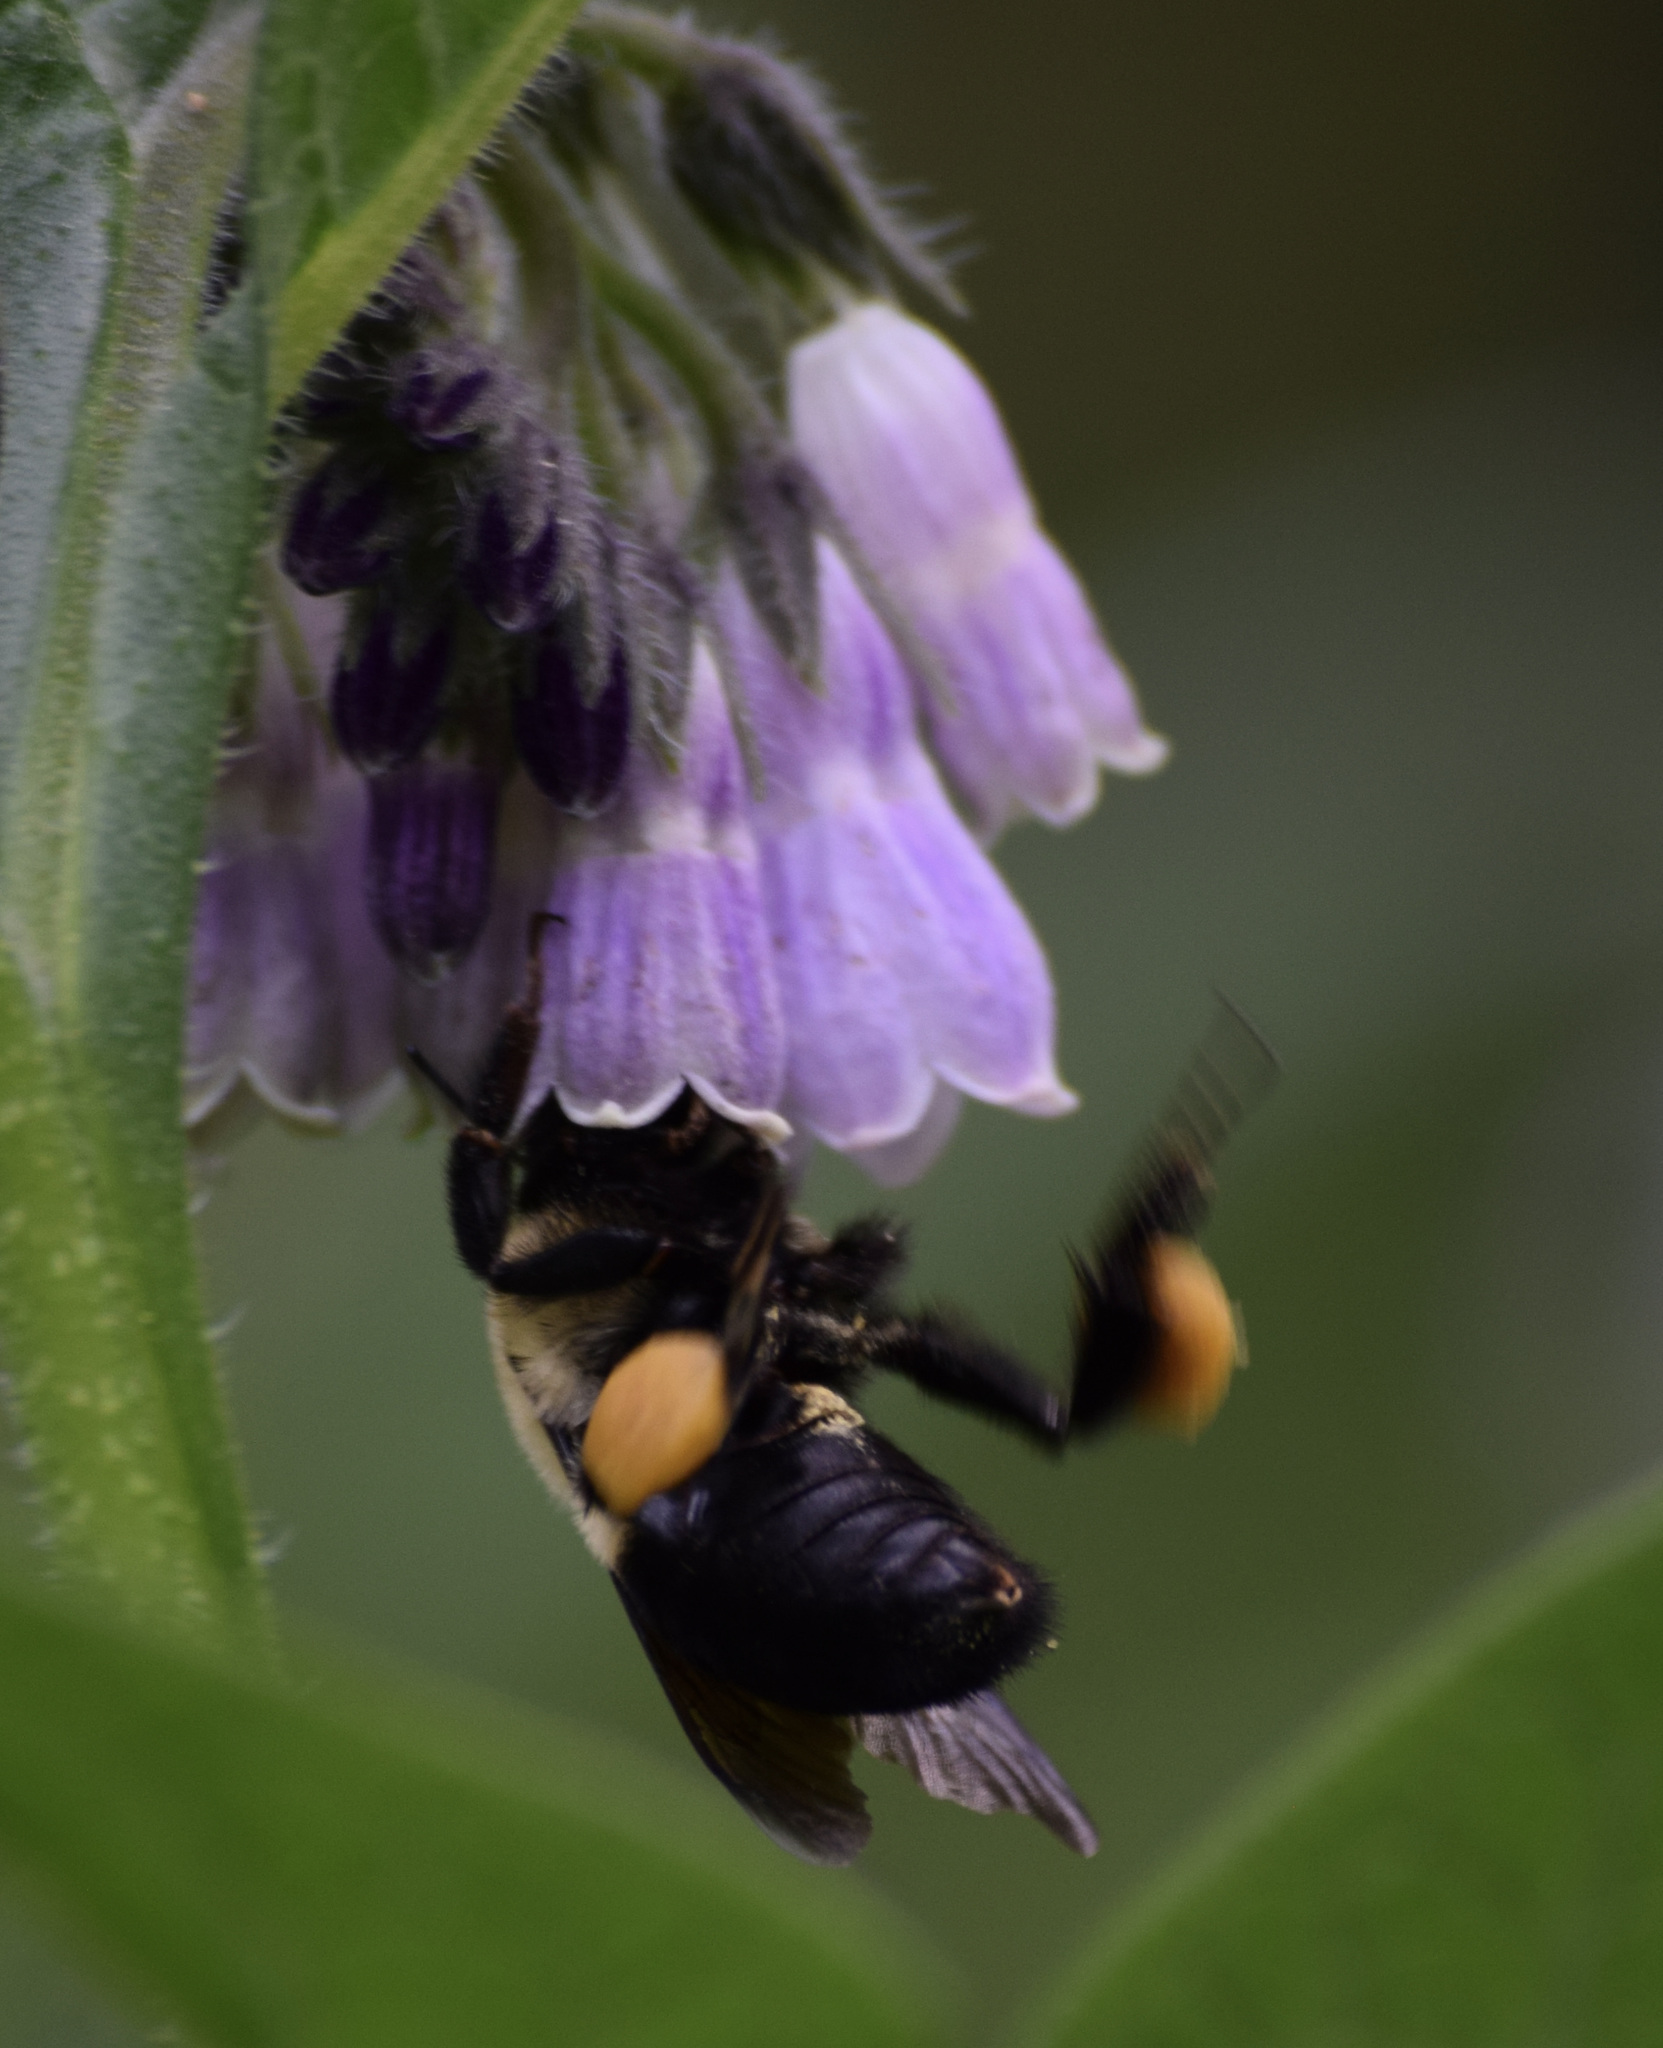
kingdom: Animalia
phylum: Arthropoda
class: Insecta
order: Hymenoptera
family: Apidae
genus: Bombus
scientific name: Bombus griseocollis
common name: Brown-belted bumble bee
